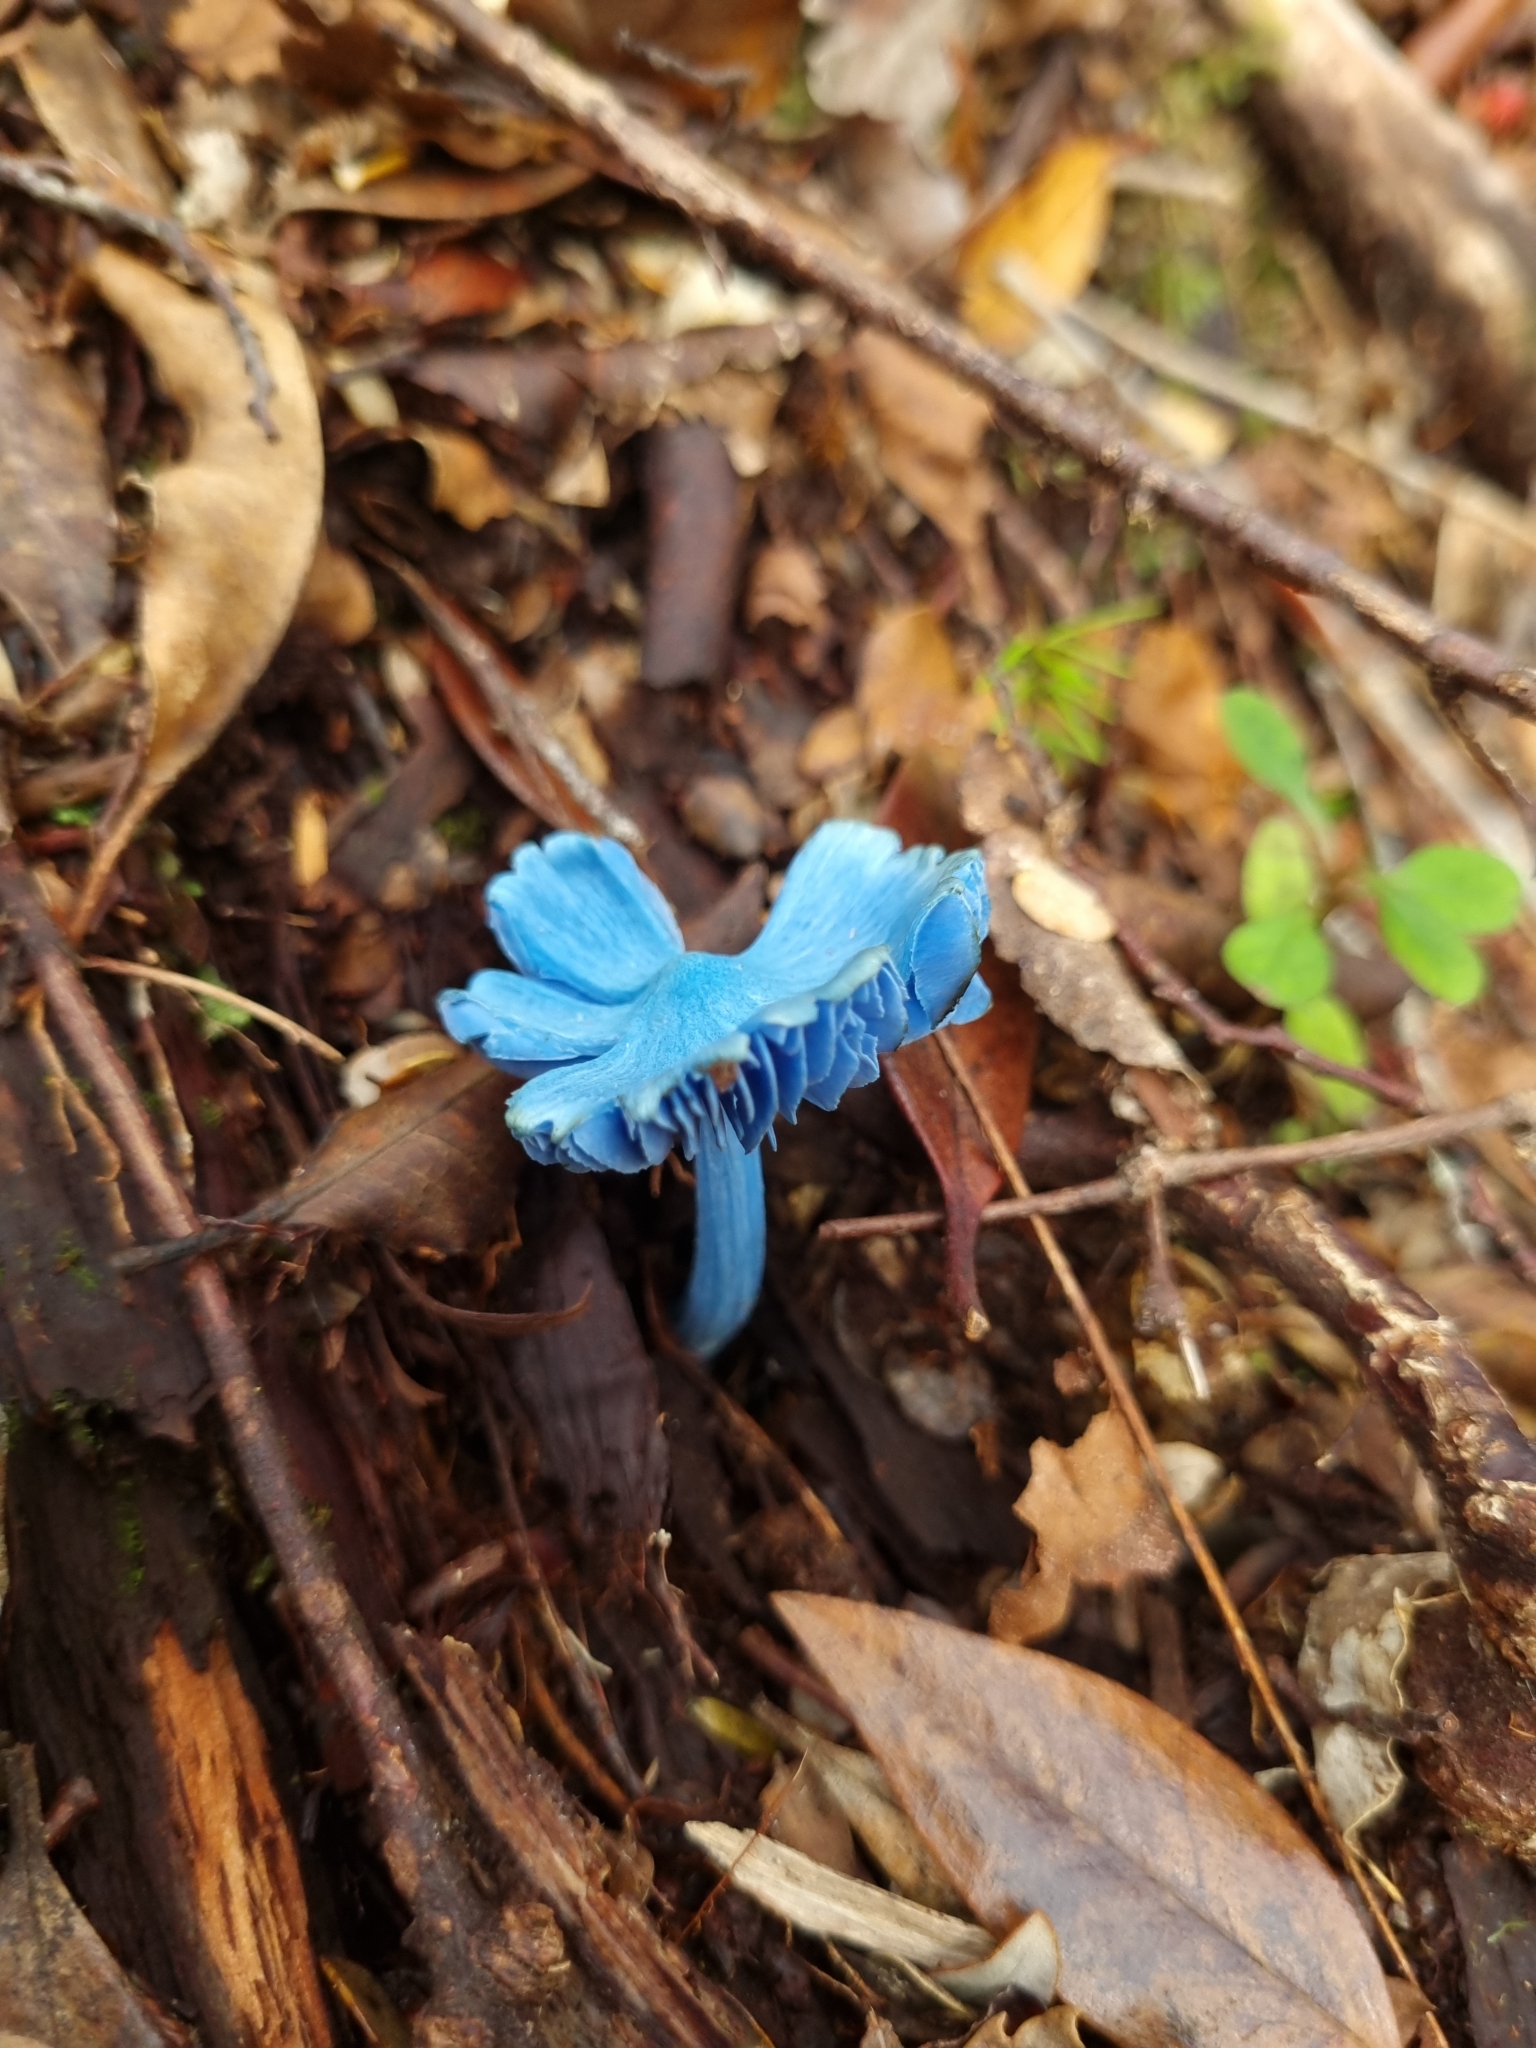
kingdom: Fungi
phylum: Basidiomycota
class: Agaricomycetes
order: Agaricales
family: Entolomataceae
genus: Entoloma
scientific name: Entoloma hochstetteri
